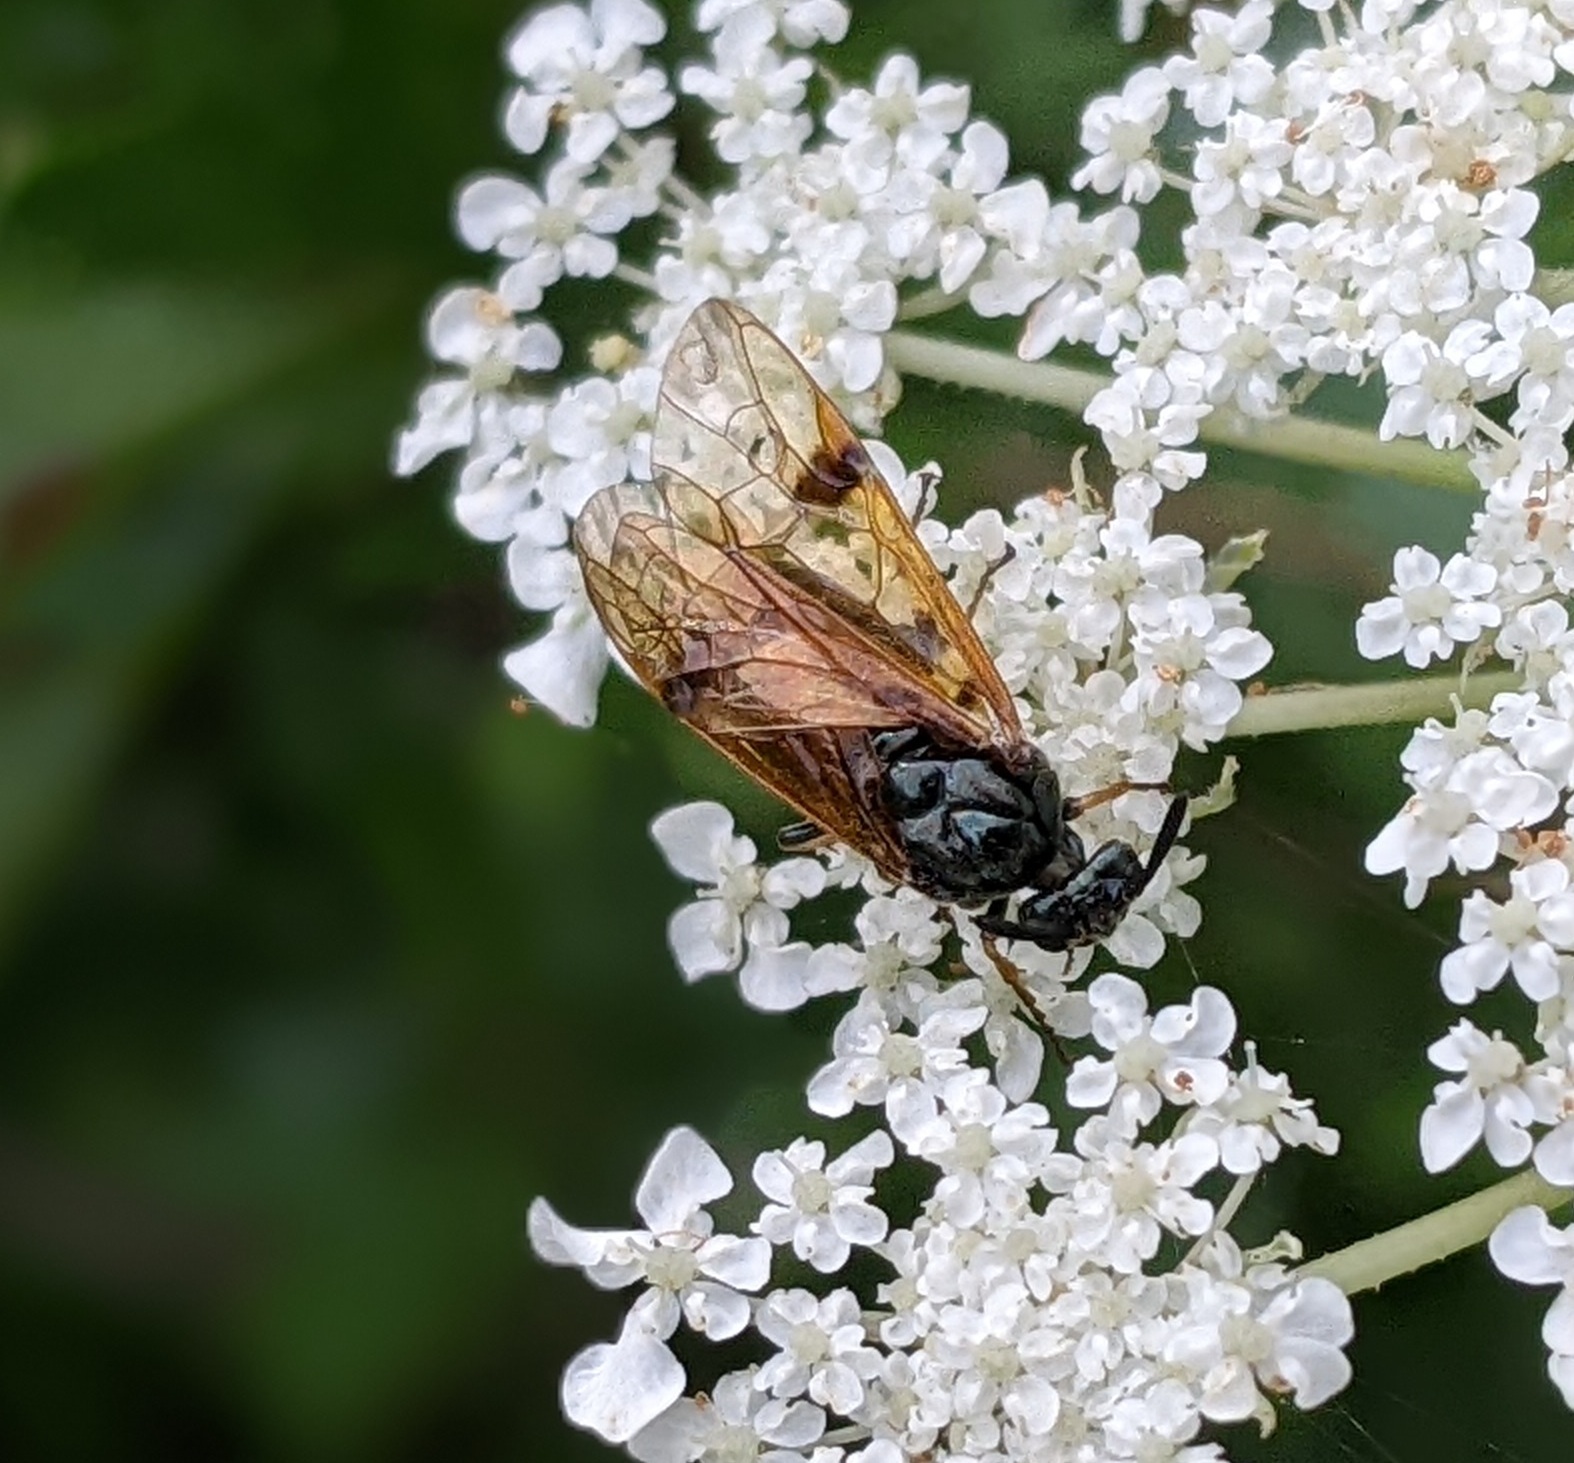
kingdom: Animalia
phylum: Arthropoda
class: Insecta
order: Hymenoptera
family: Argidae
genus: Arge
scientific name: Arge ustulata
